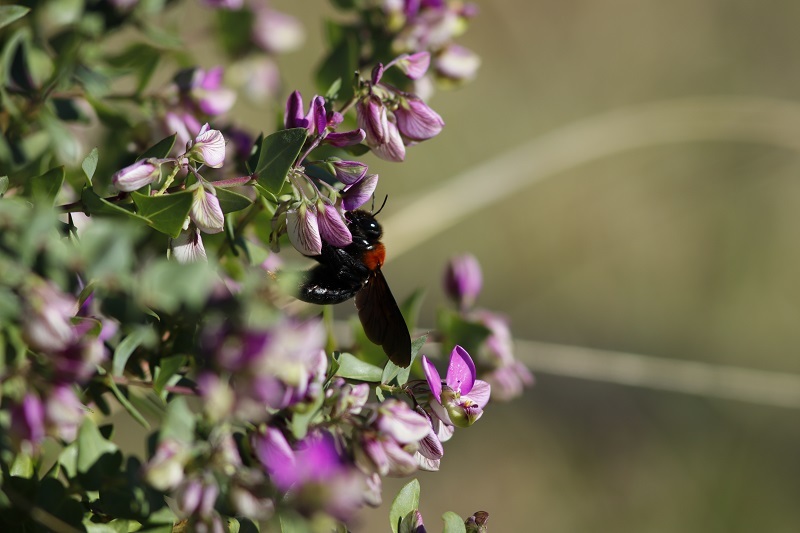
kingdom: Animalia
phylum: Arthropoda
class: Insecta
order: Hymenoptera
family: Apidae
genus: Xylocopa
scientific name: Xylocopa flavorufa
